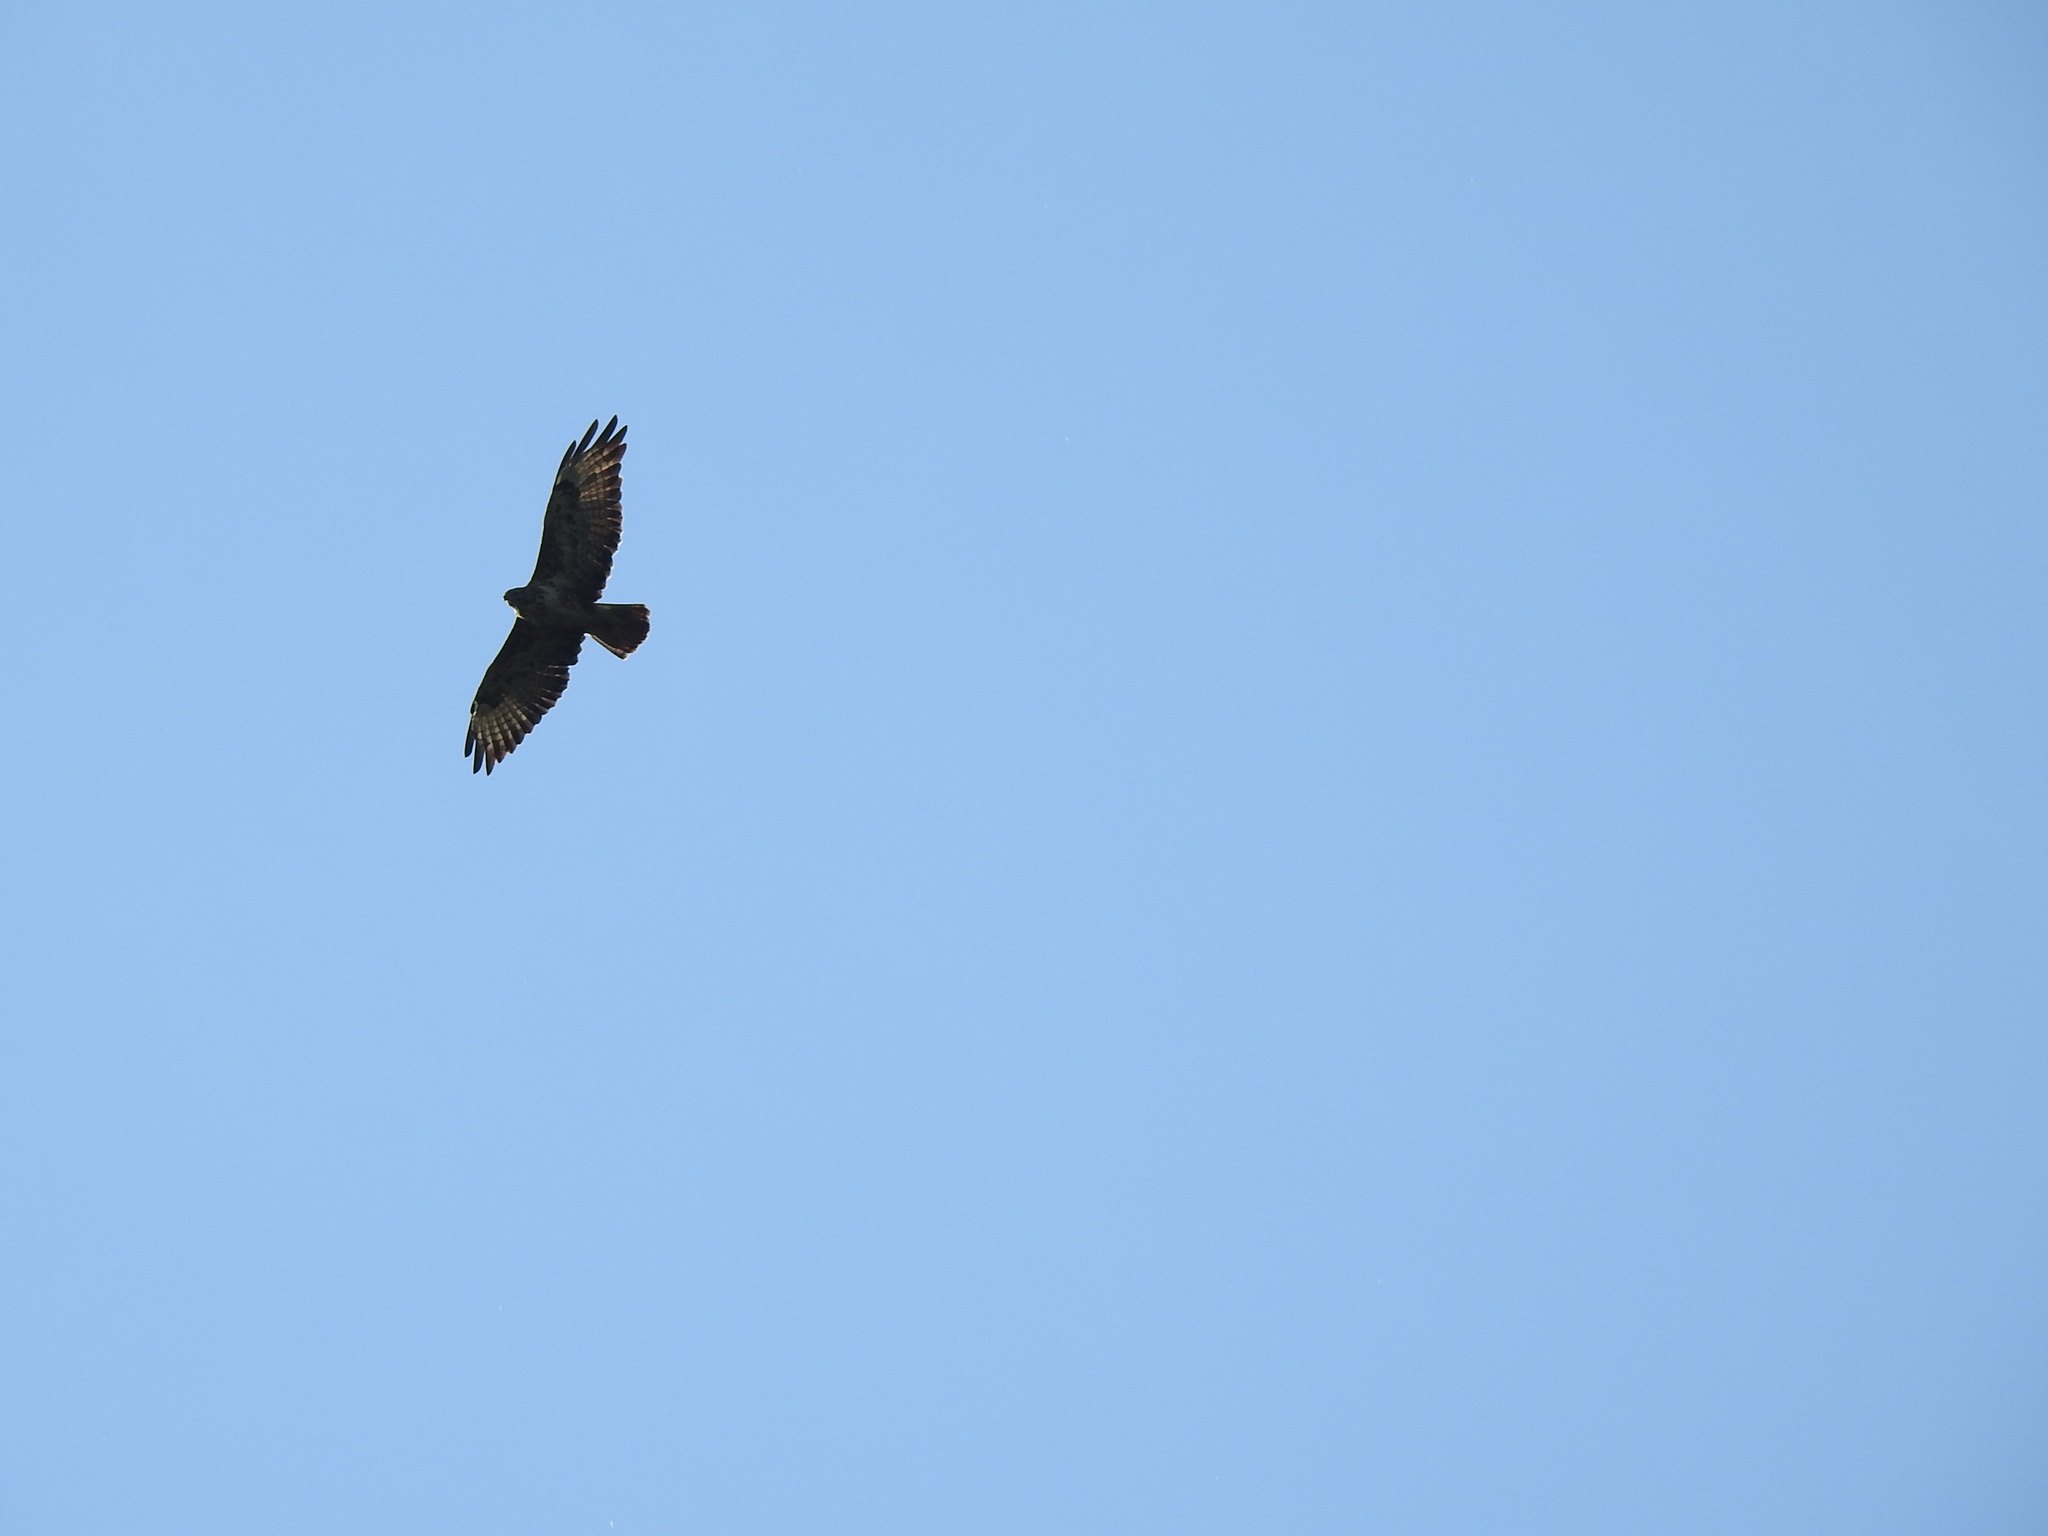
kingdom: Animalia
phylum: Chordata
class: Aves
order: Accipitriformes
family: Accipitridae
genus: Buteo
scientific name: Buteo buteo
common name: Common buzzard
